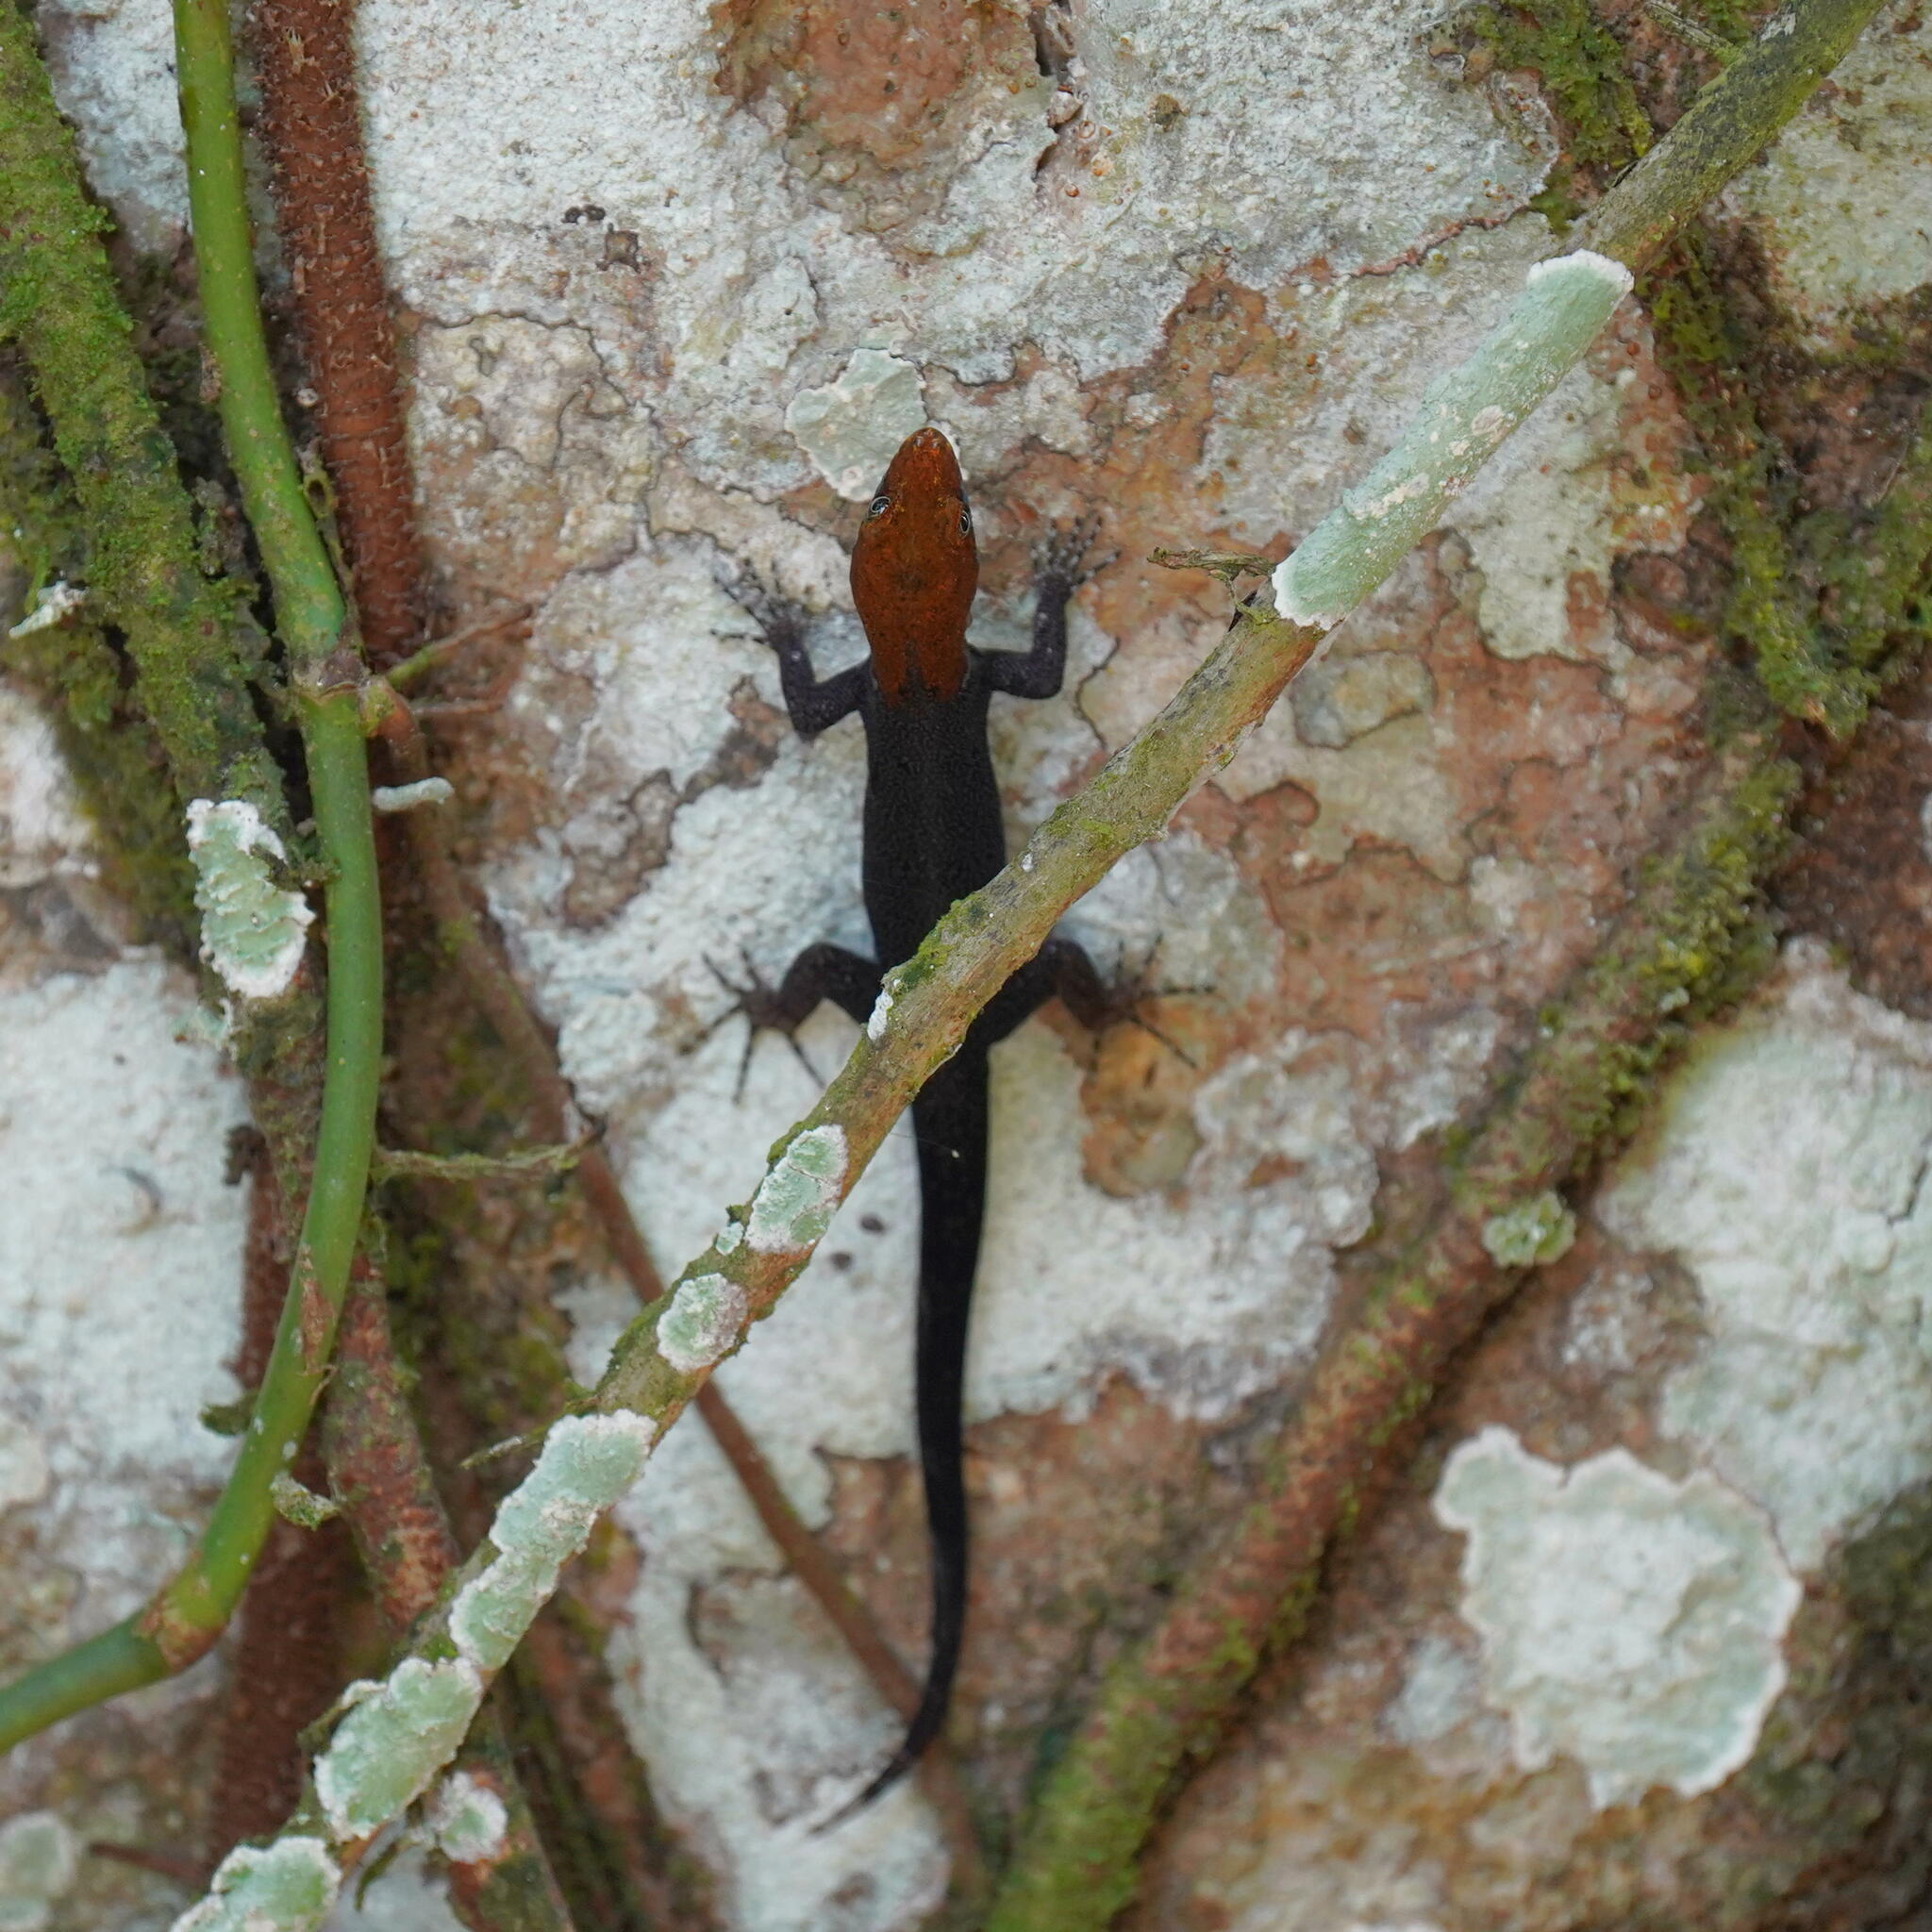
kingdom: Animalia
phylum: Chordata
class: Squamata
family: Sphaerodactylidae
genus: Gonatodes
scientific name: Gonatodes albogularis
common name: Yellow-headed gecko
